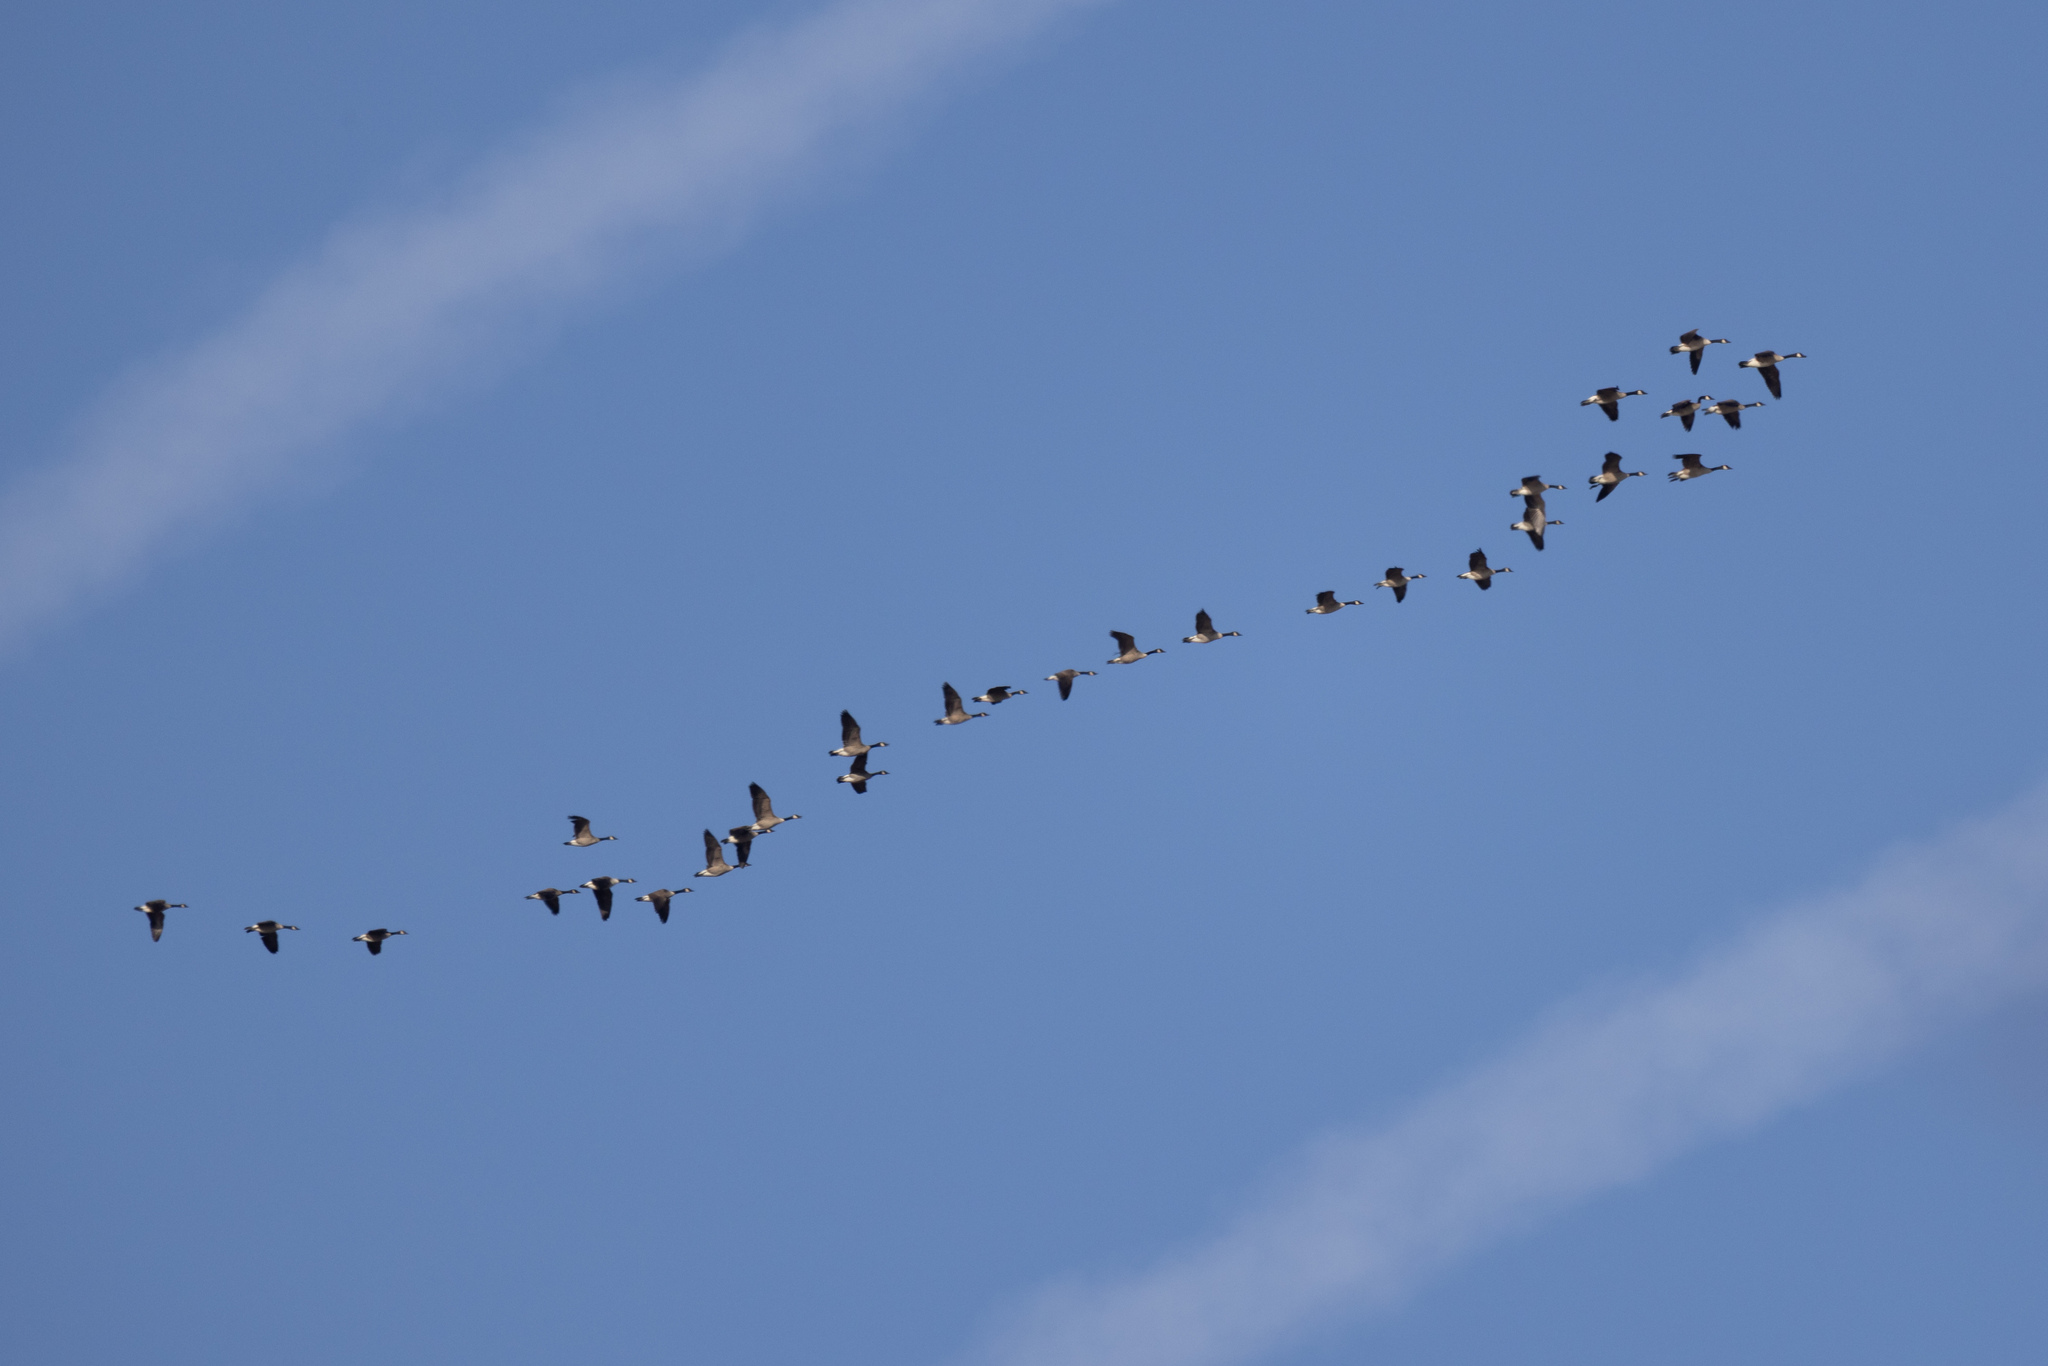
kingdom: Animalia
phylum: Chordata
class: Aves
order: Anseriformes
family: Anatidae
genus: Branta
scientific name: Branta canadensis
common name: Canada goose
